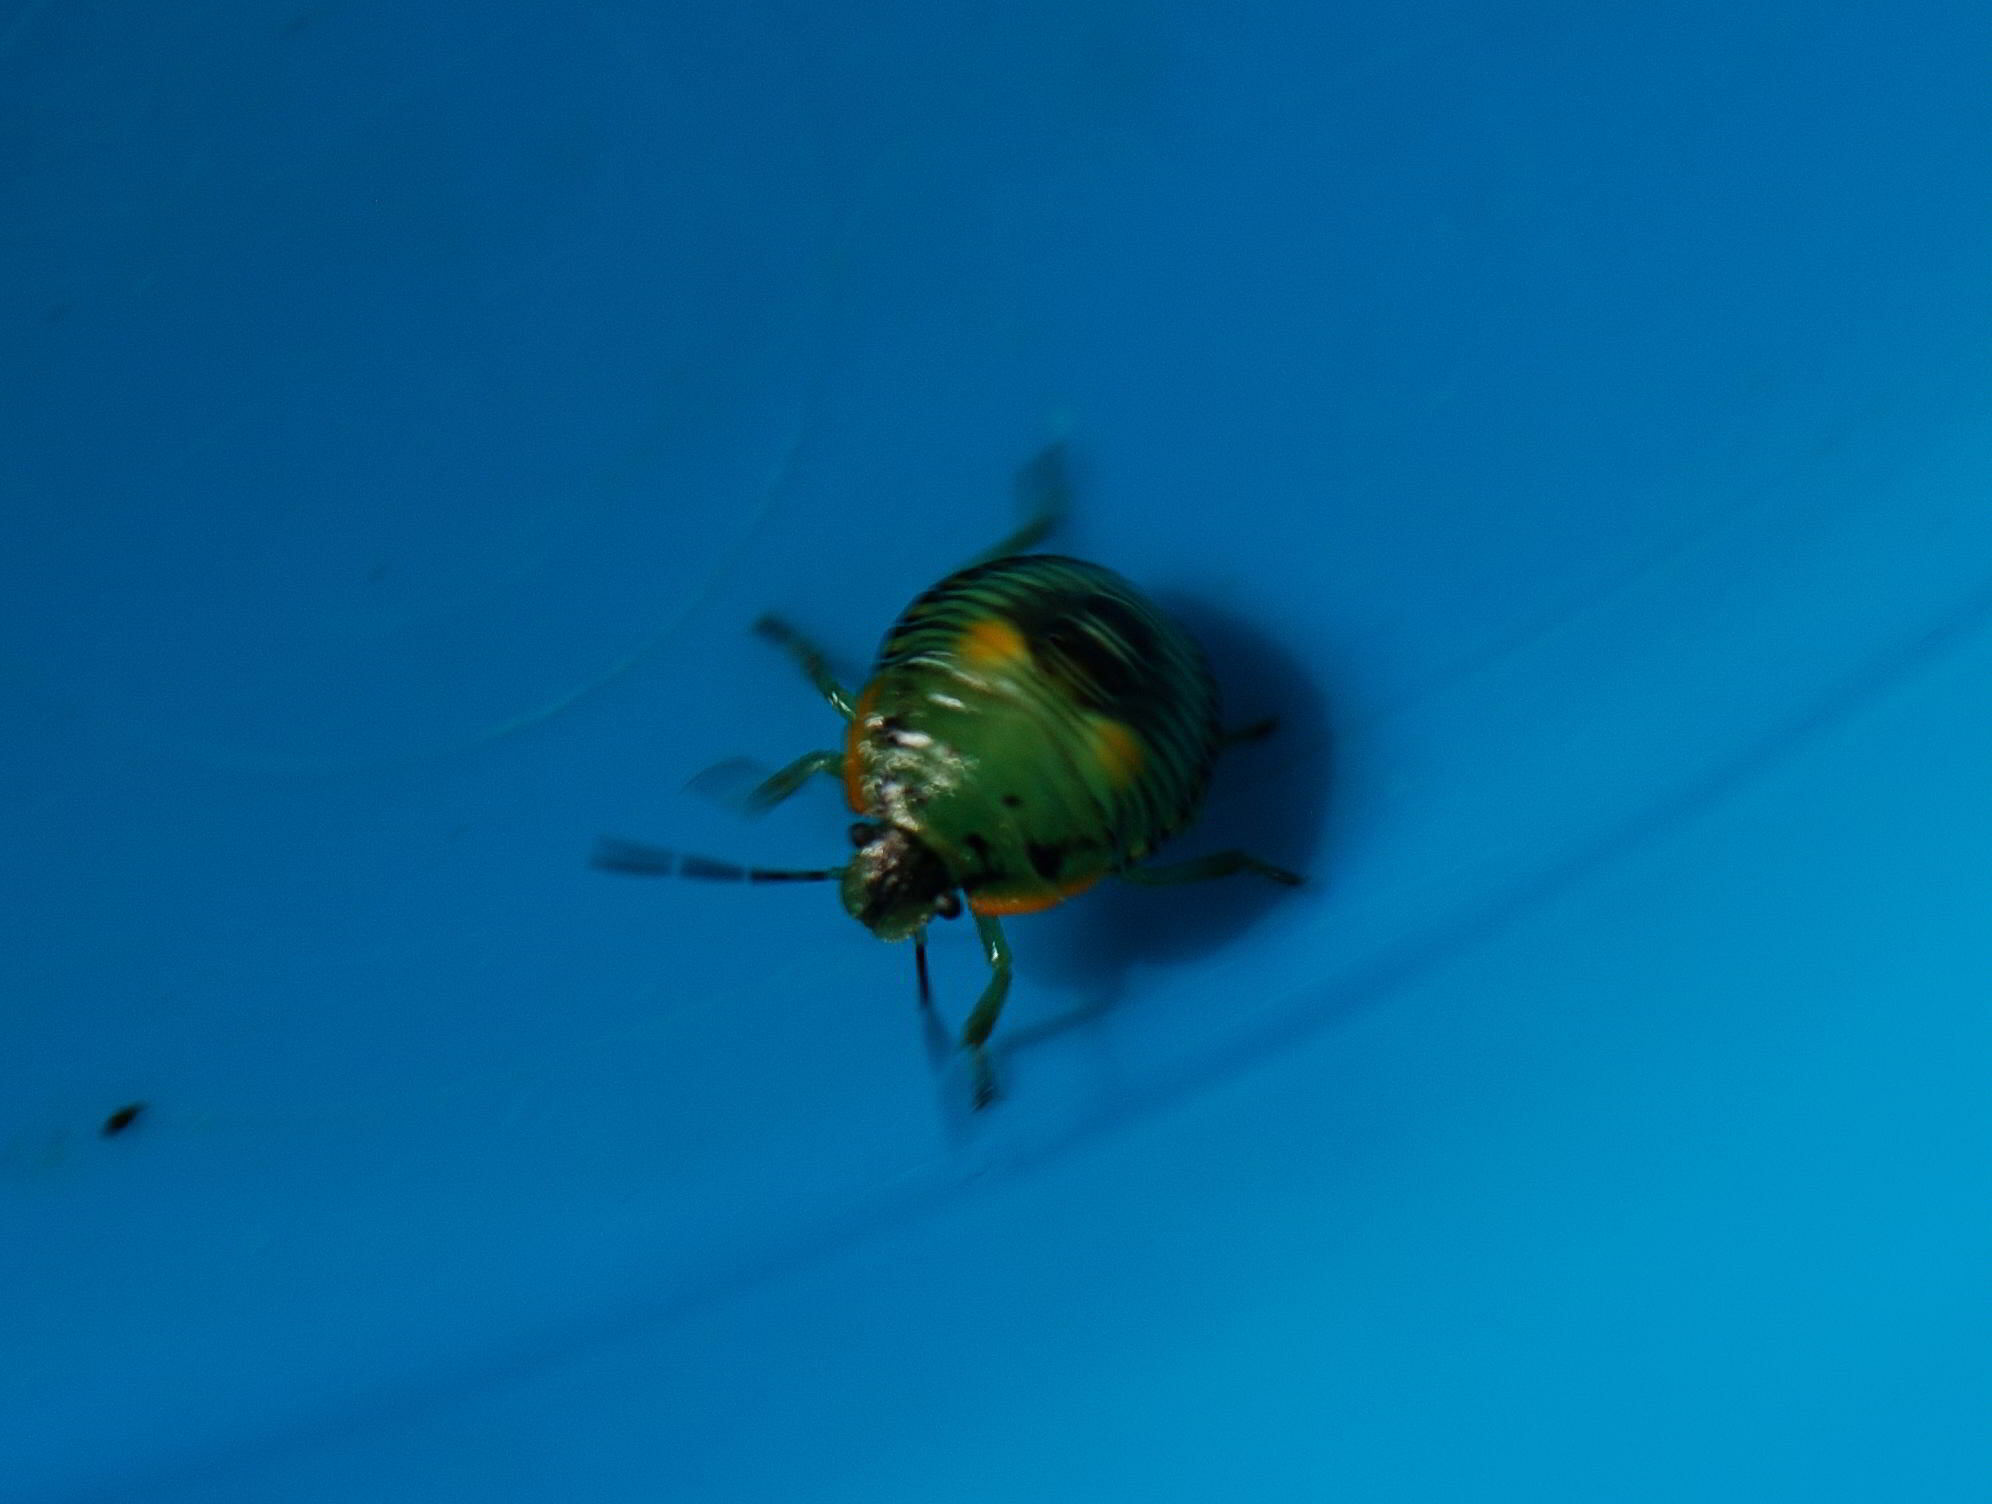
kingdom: Animalia
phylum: Arthropoda
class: Insecta
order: Hemiptera
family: Pentatomidae
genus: Chinavia
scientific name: Chinavia hilaris
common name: Green stink bug
